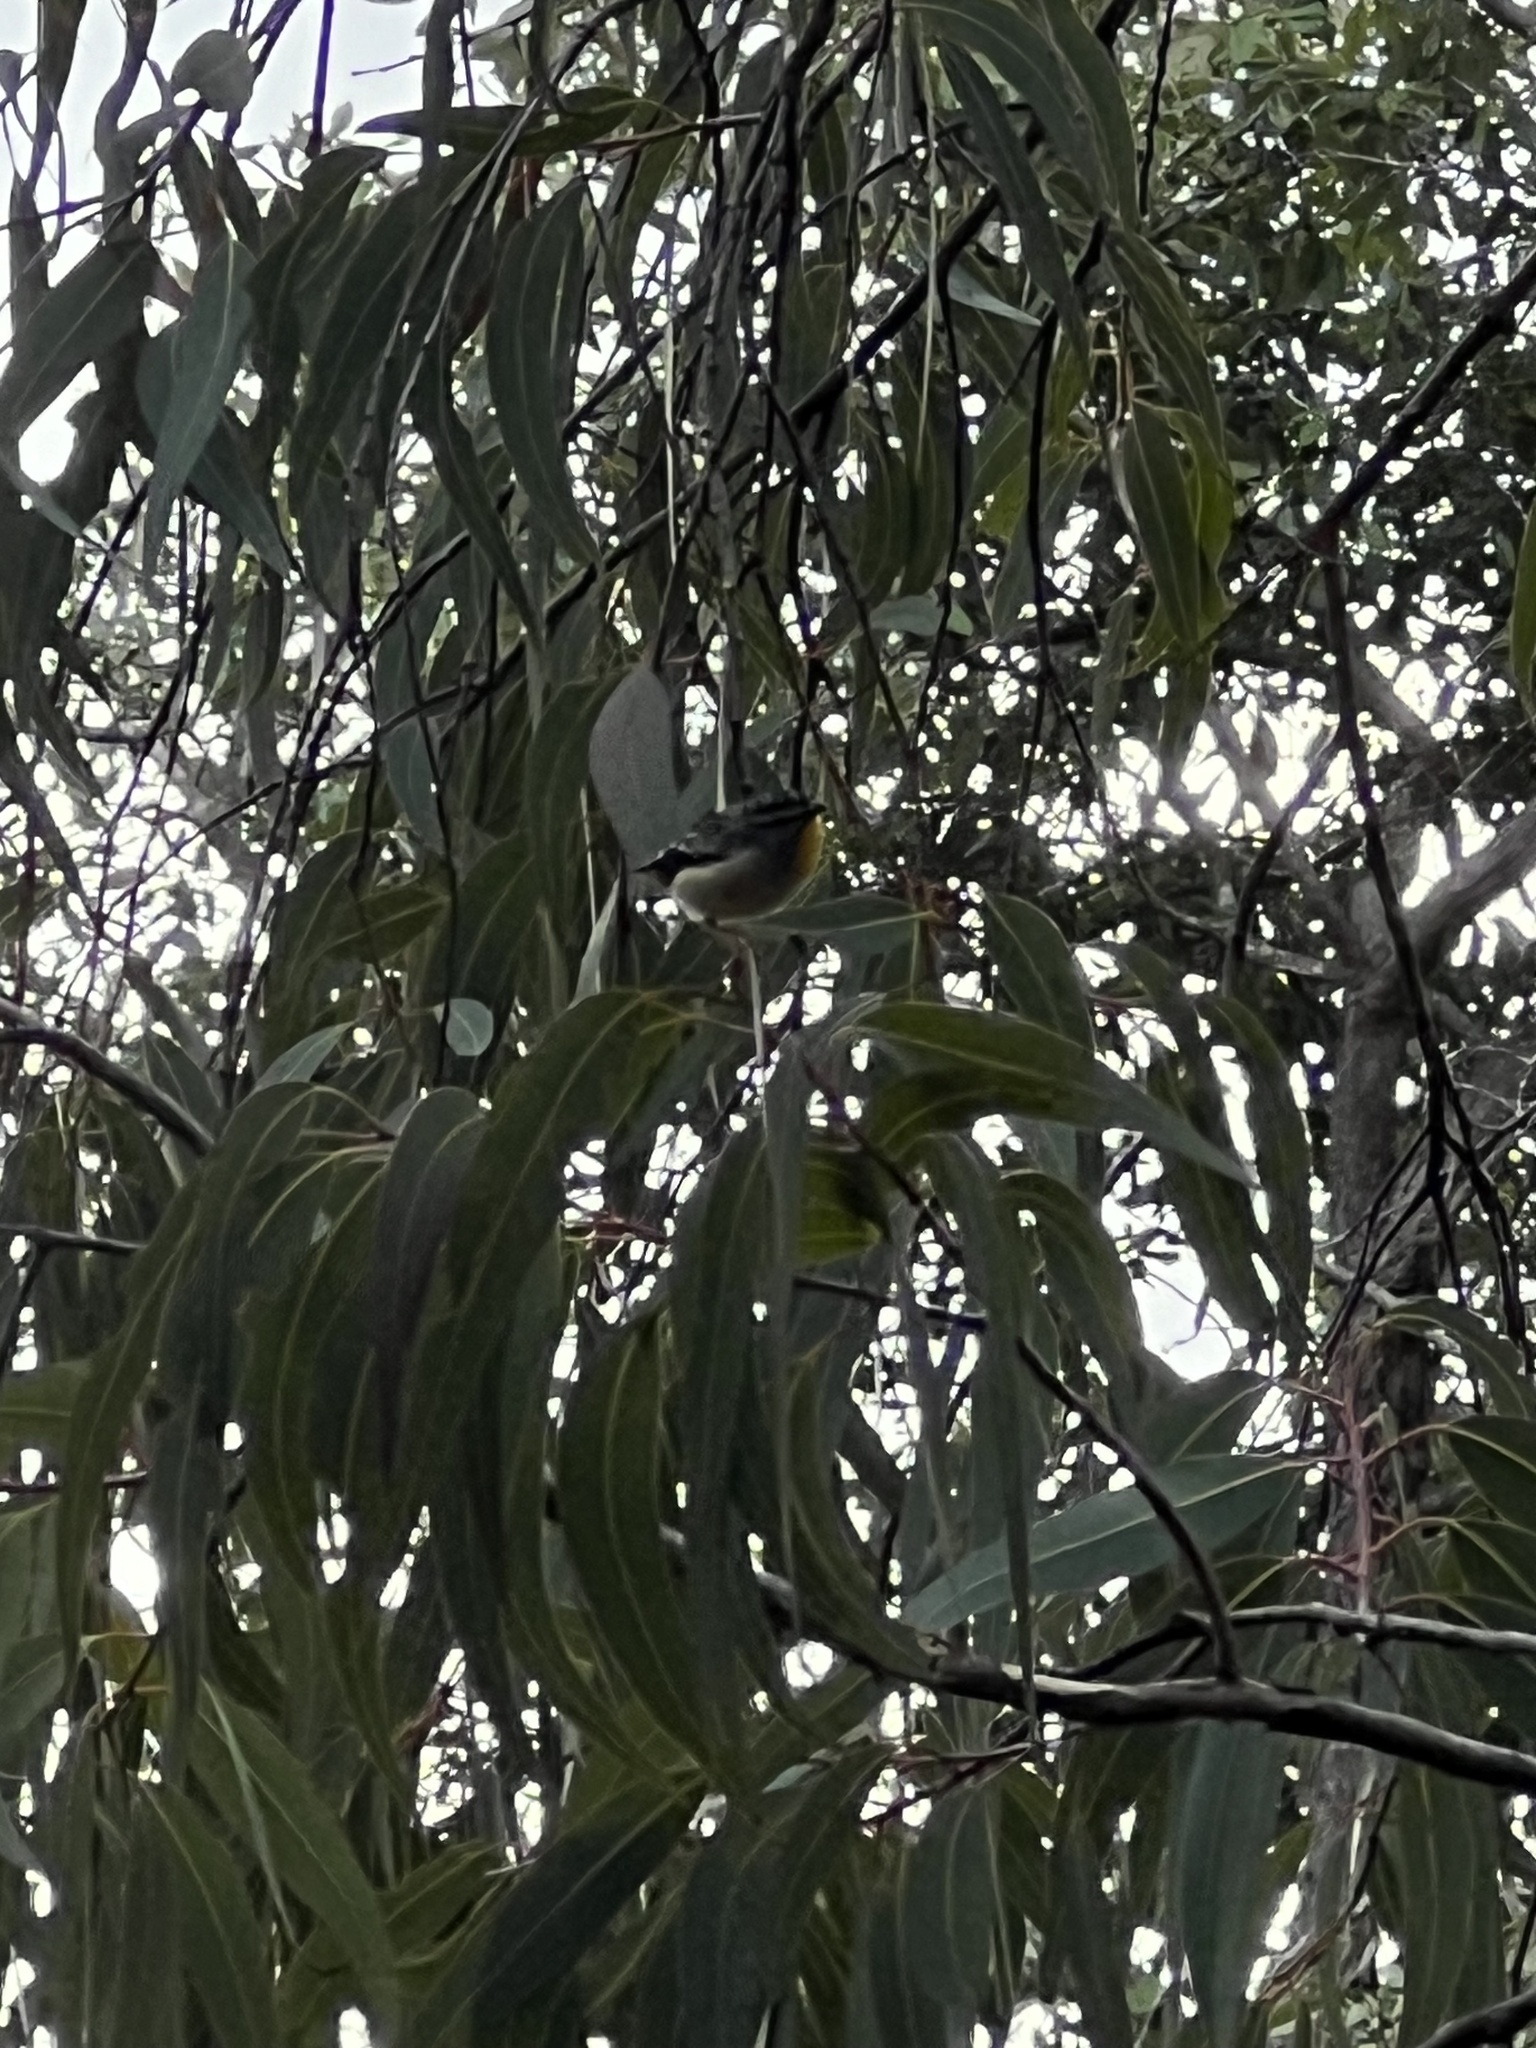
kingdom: Animalia
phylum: Chordata
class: Aves
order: Passeriformes
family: Pardalotidae
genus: Pardalotus
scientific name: Pardalotus punctatus
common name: Spotted pardalote
